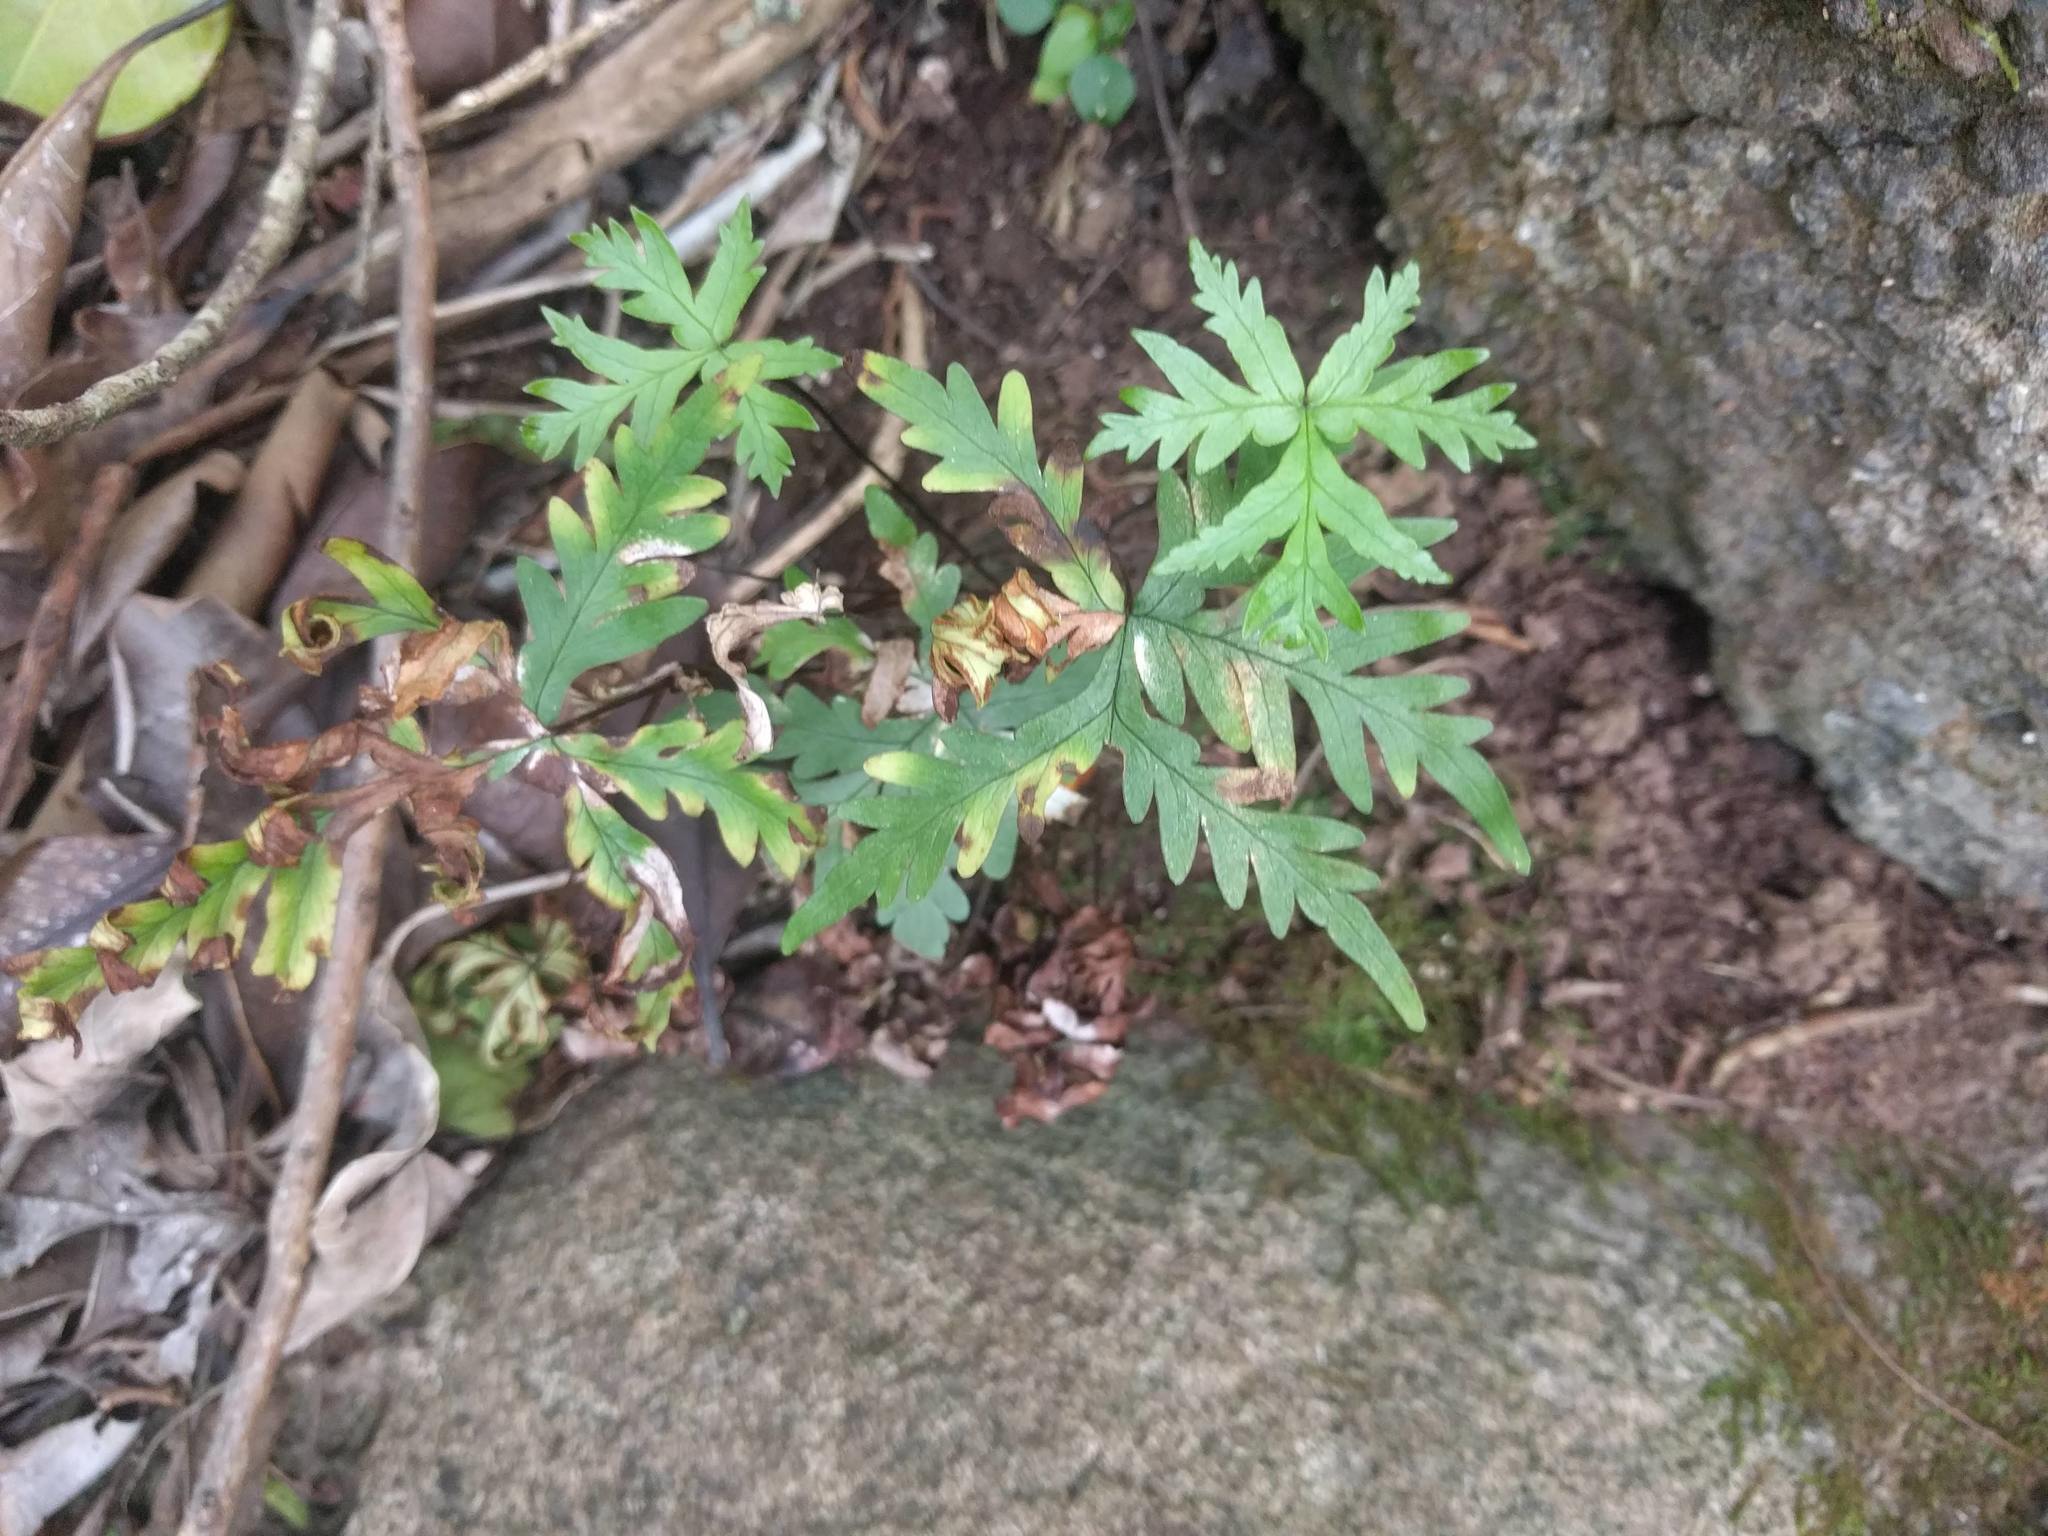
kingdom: Plantae
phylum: Tracheophyta
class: Polypodiopsida
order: Polypodiales
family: Pteridaceae
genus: Doryopteris
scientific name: Doryopteris decipiens
